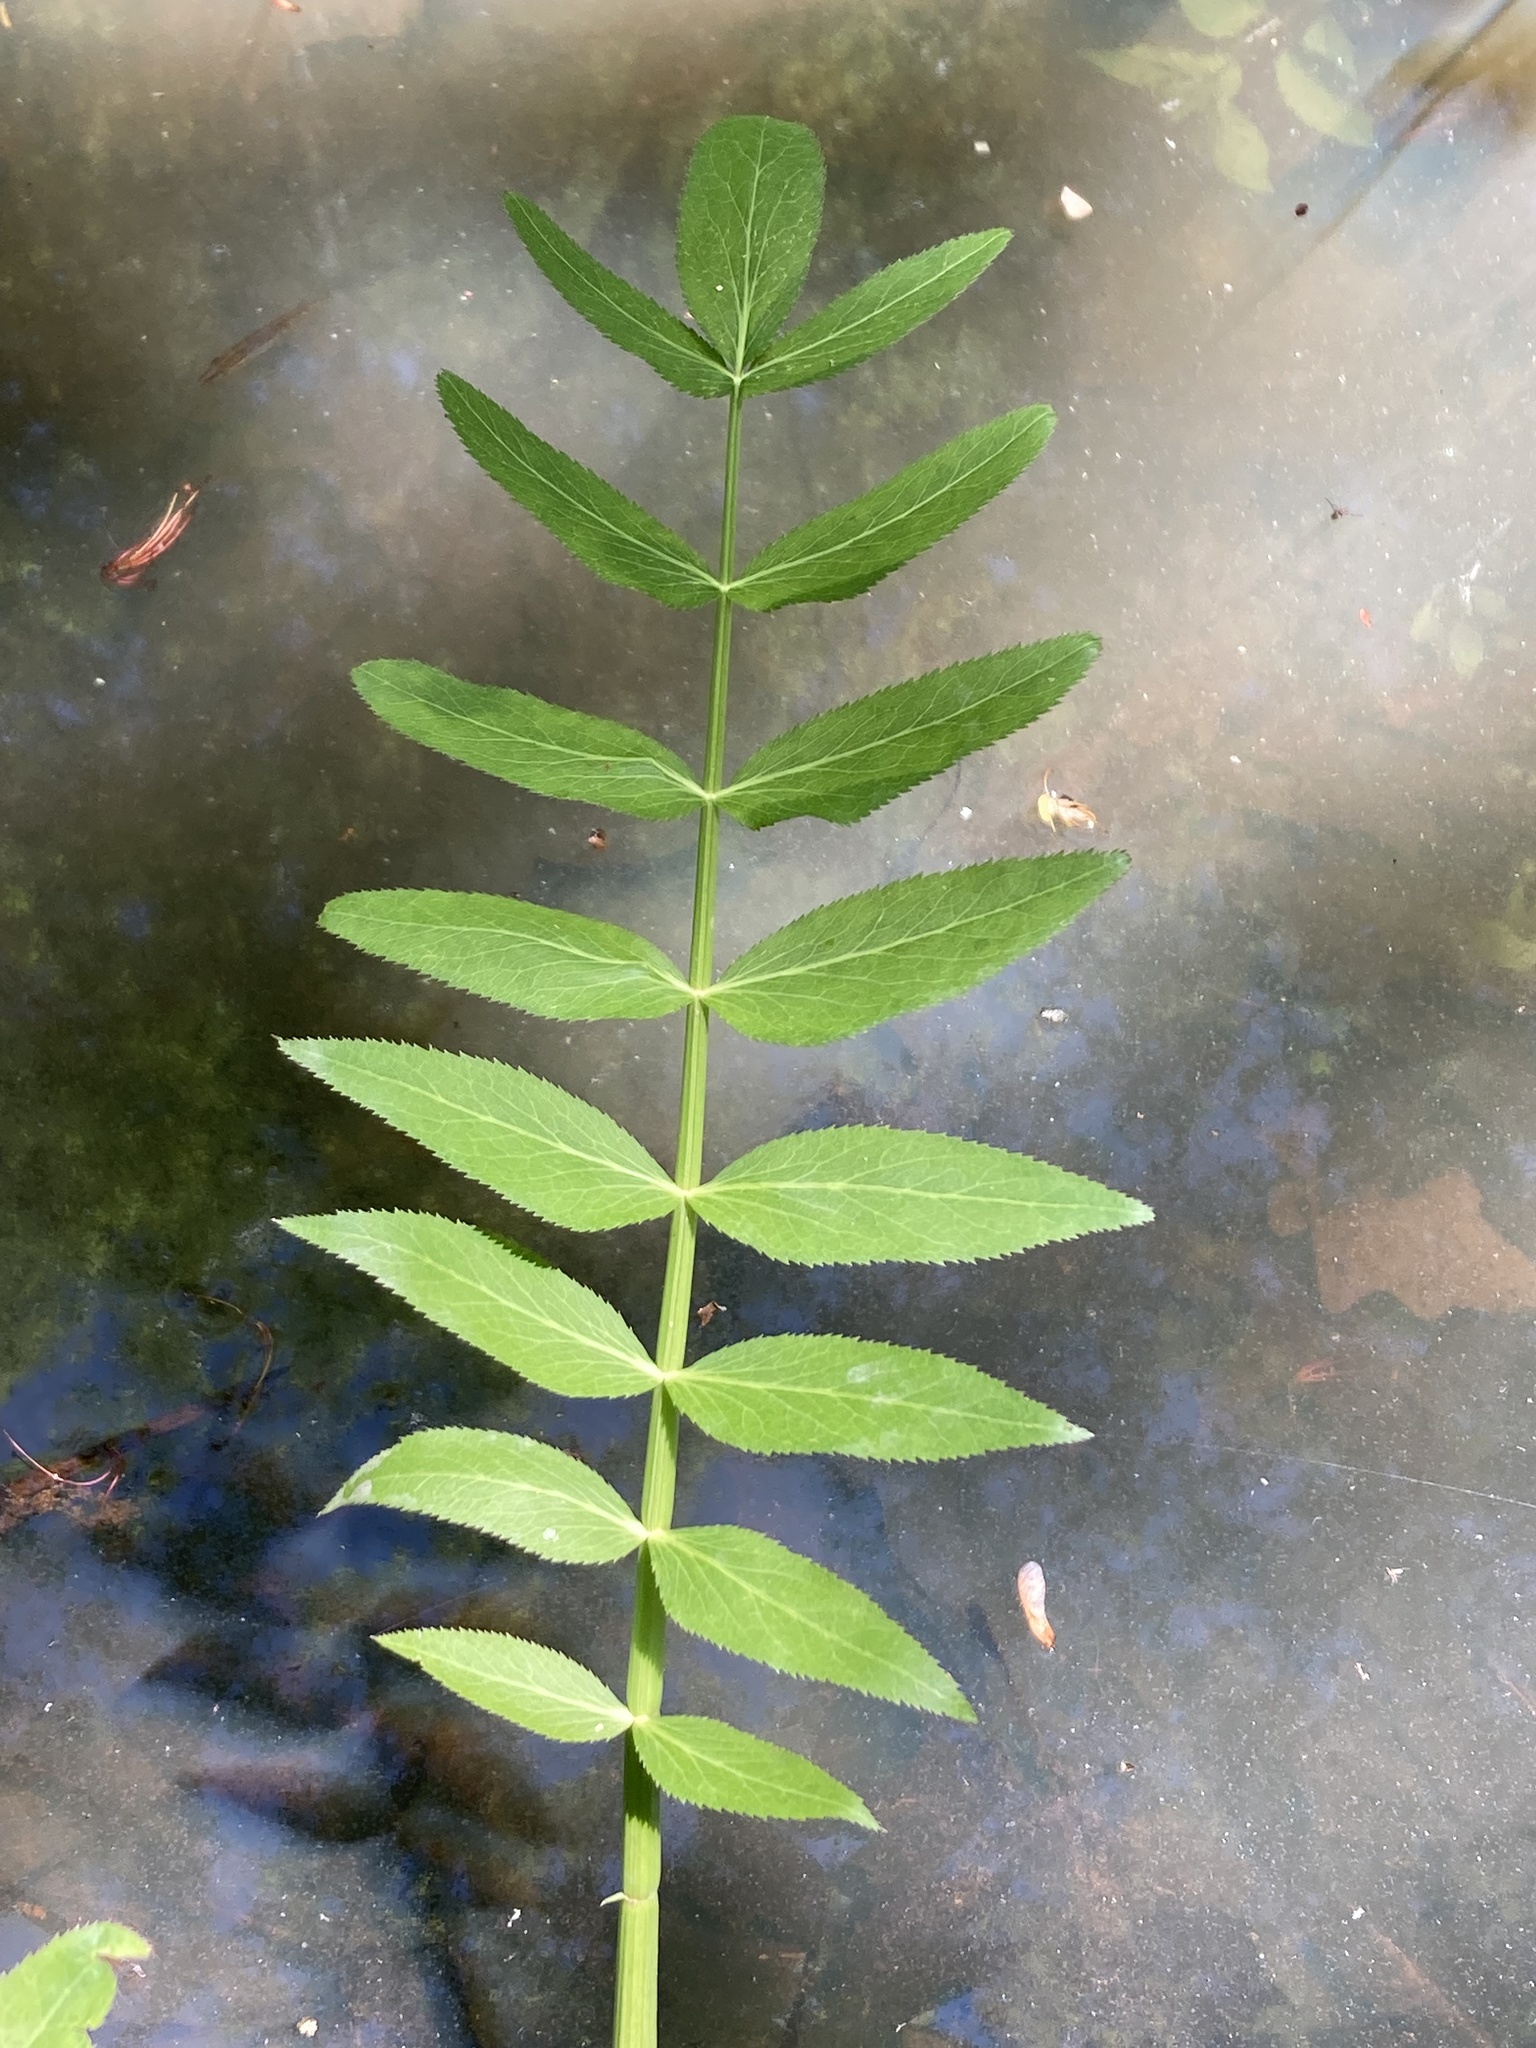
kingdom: Plantae
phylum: Tracheophyta
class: Magnoliopsida
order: Apiales
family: Apiaceae
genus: Sium
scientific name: Sium suave
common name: Hemlock water-parsnip
